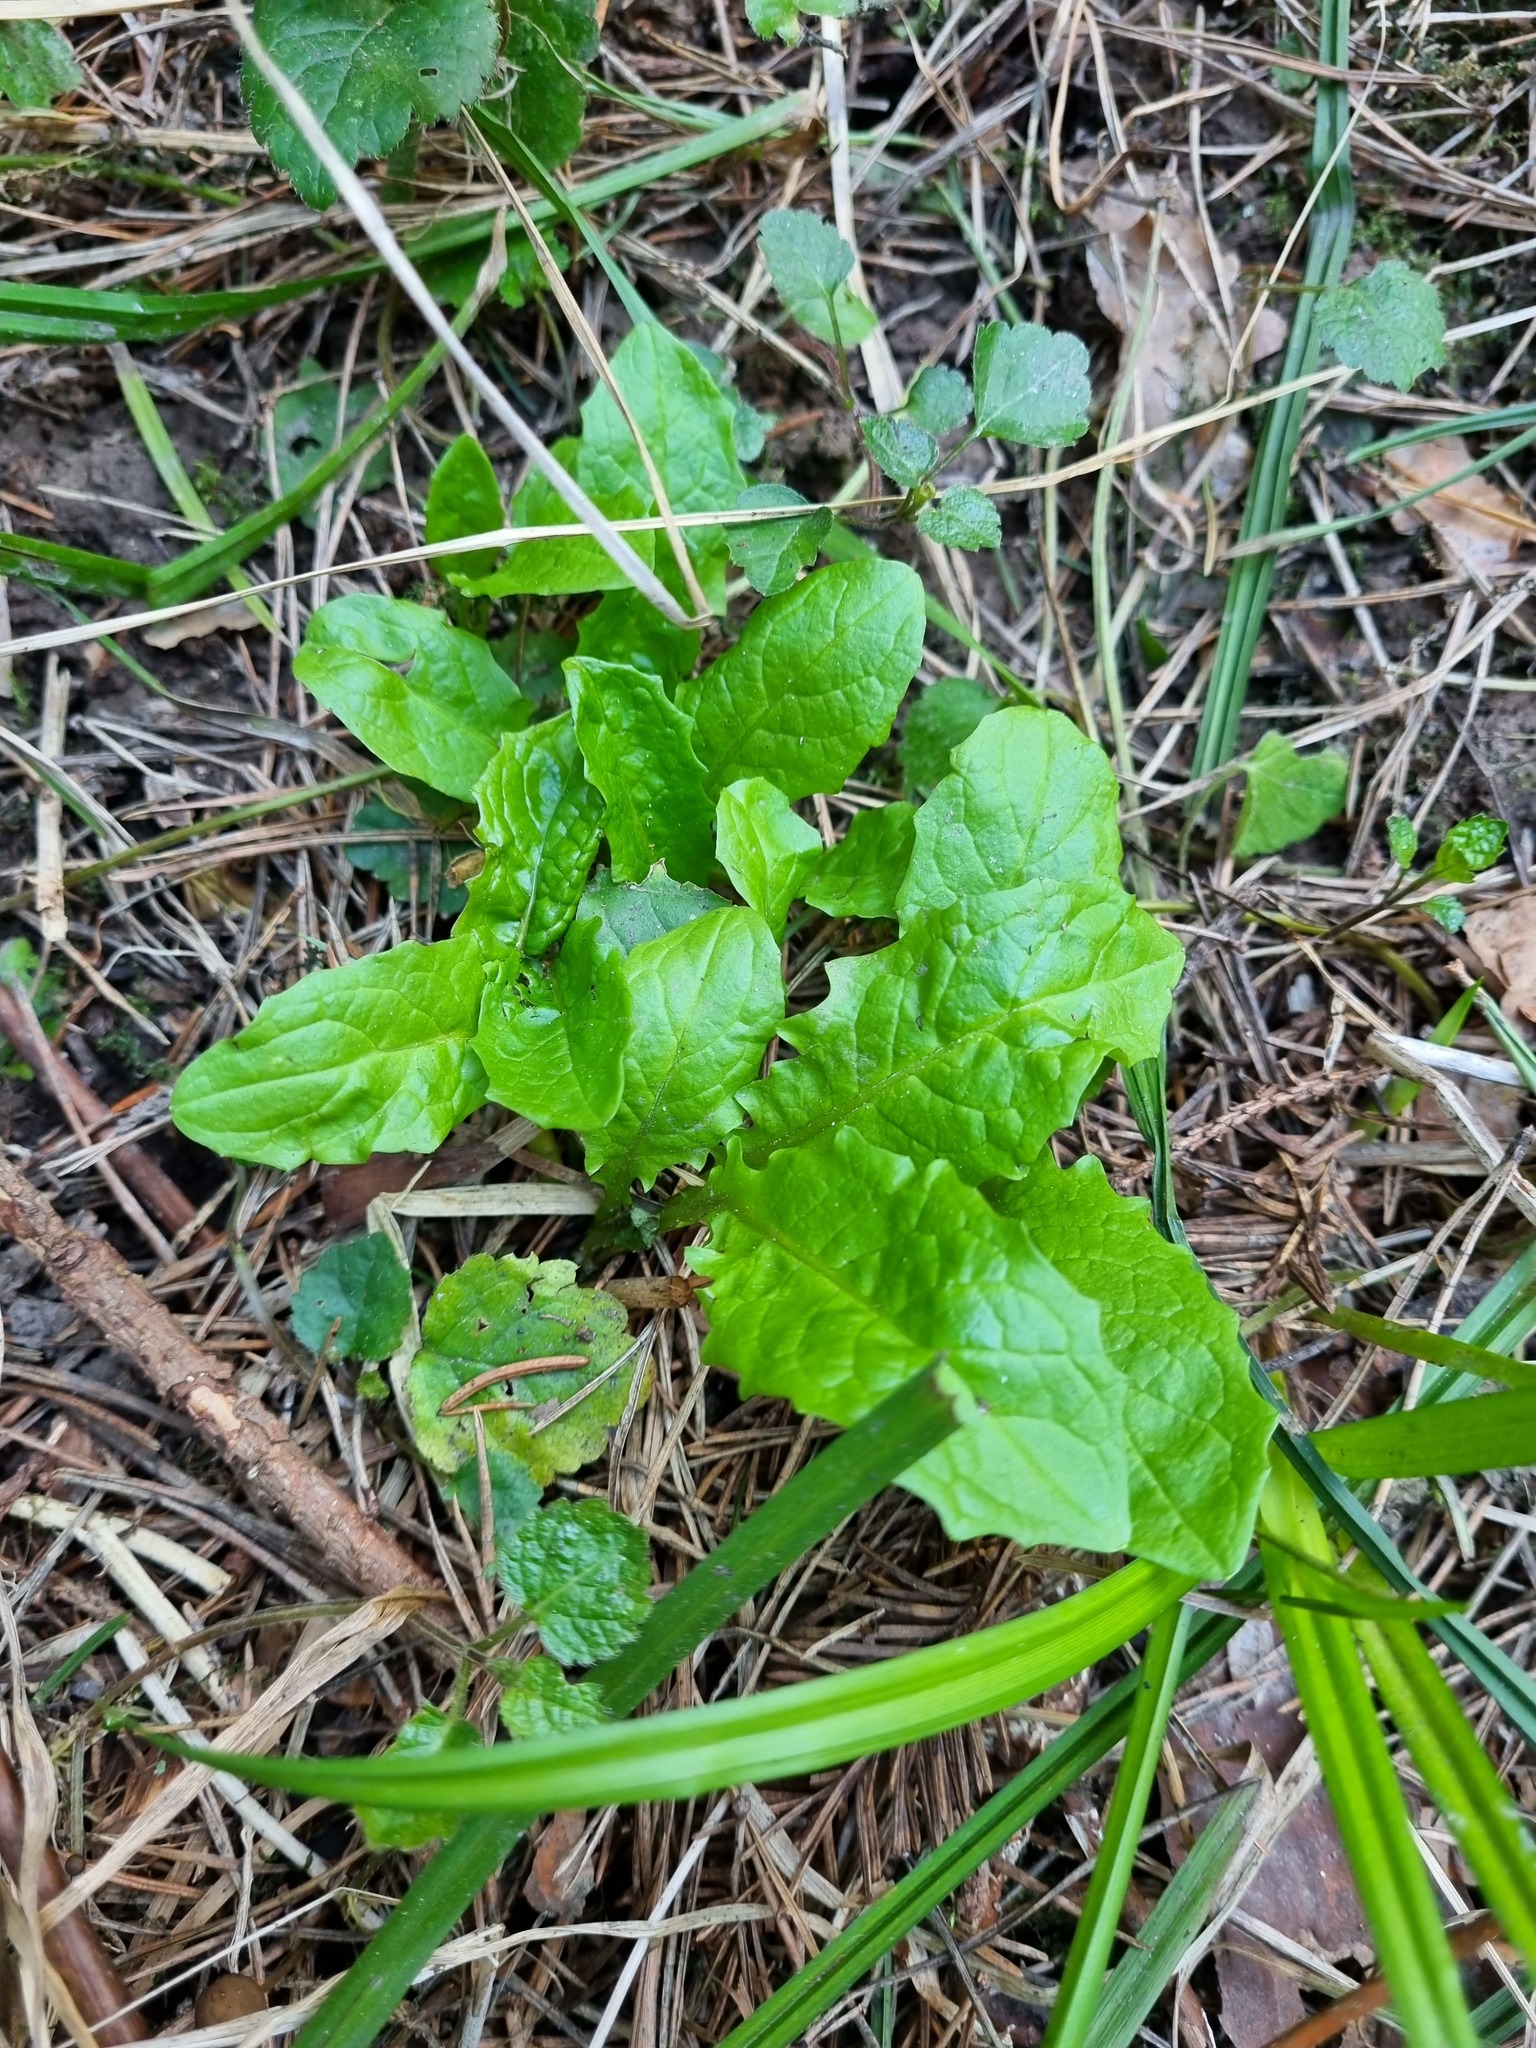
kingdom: Plantae
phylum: Tracheophyta
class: Magnoliopsida
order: Asterales
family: Asteraceae
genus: Crepis
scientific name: Crepis paludosa
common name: Marsh hawk's-beard
